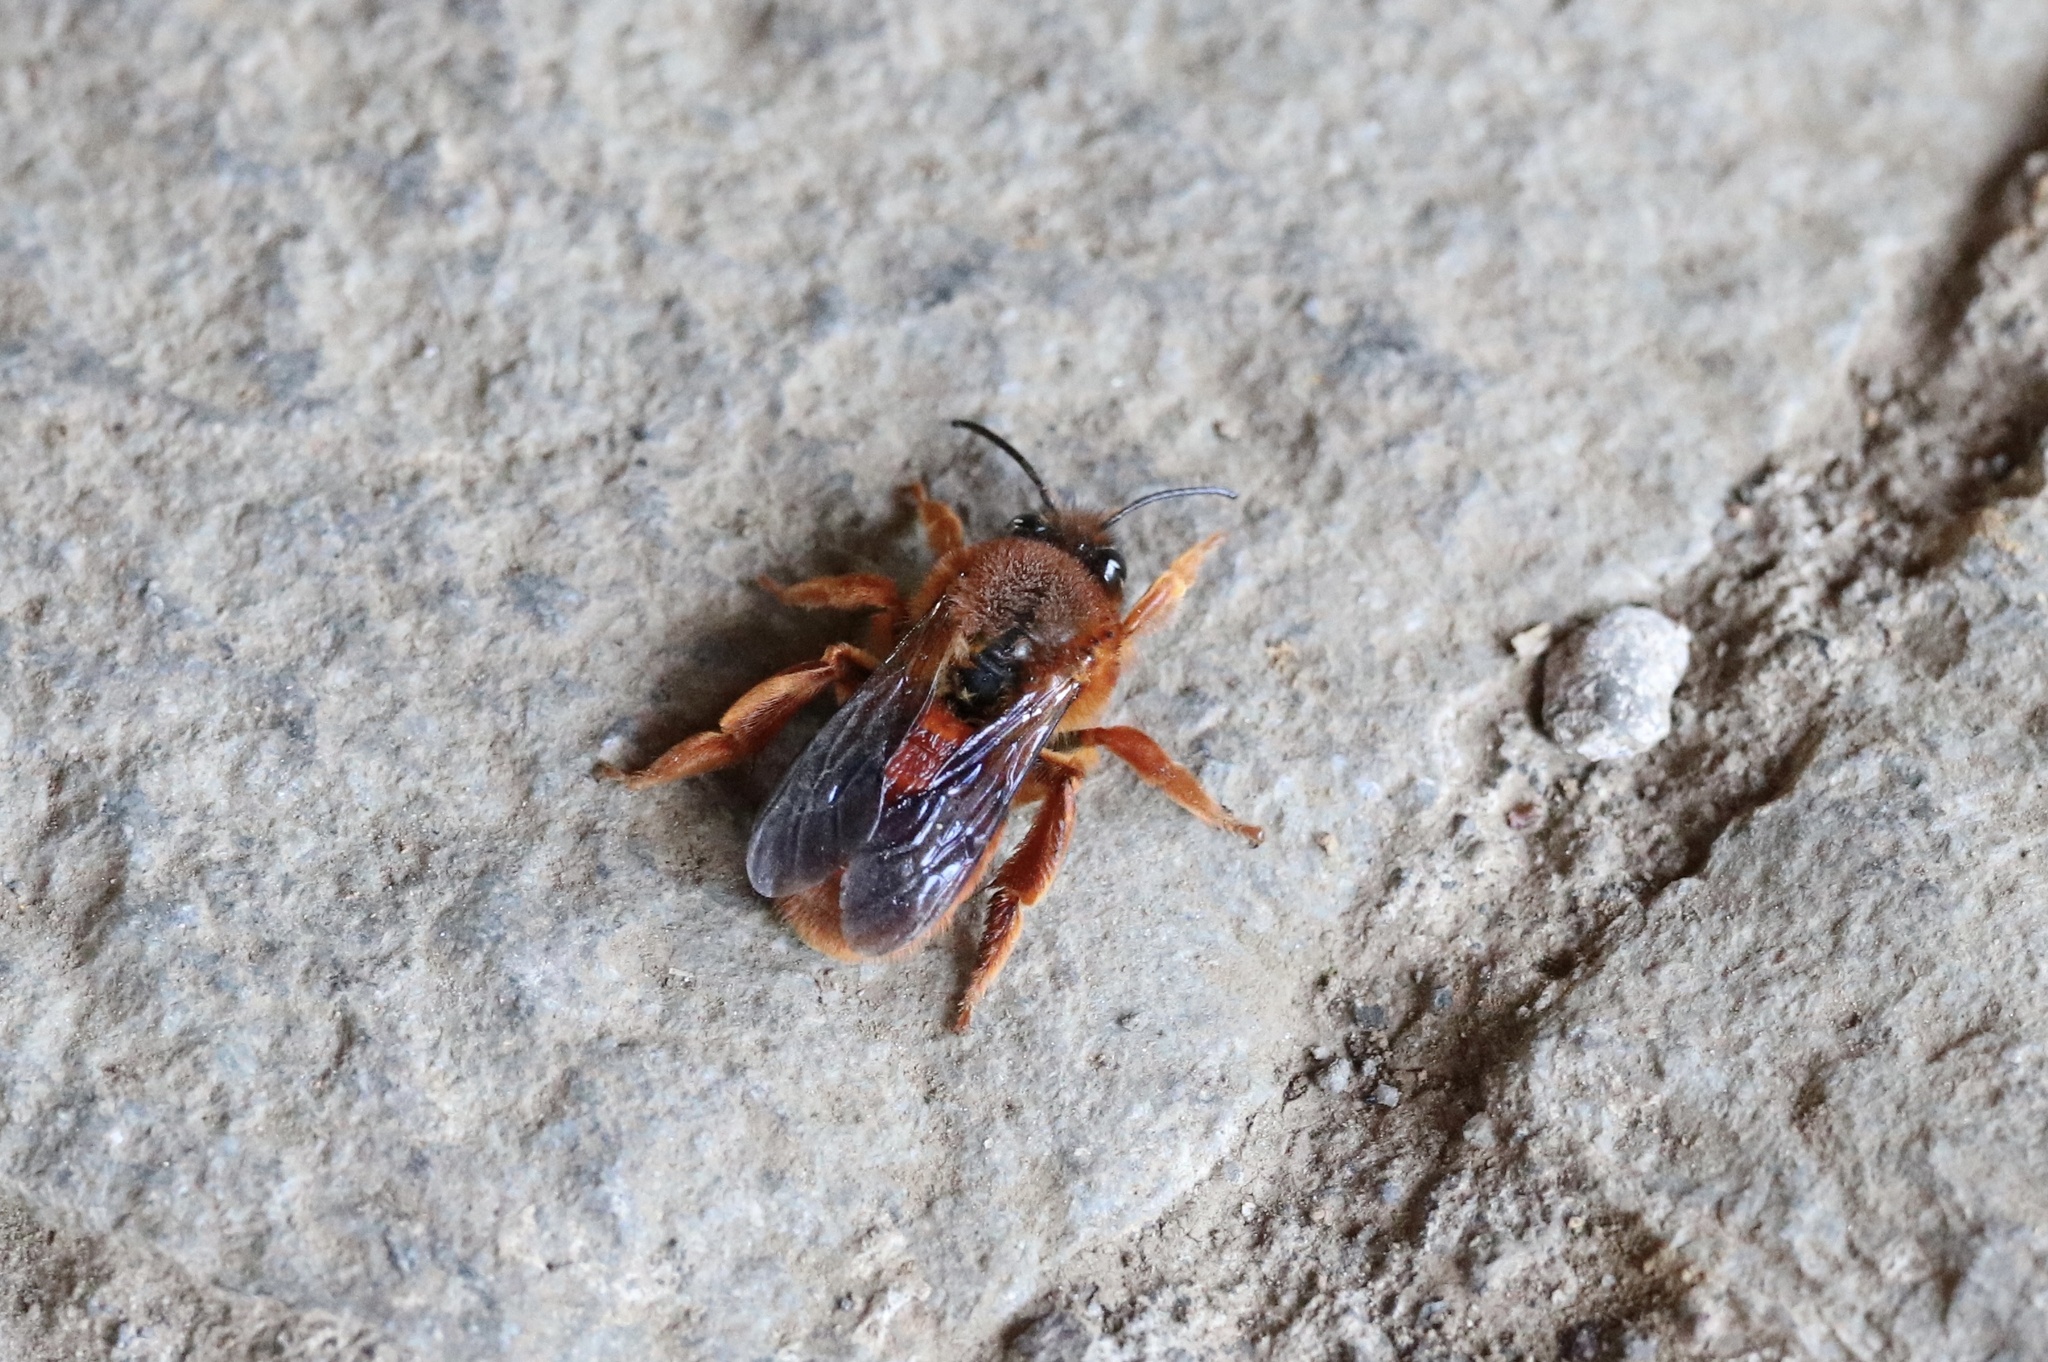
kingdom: Animalia
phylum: Arthropoda
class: Insecta
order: Hymenoptera
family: Colletidae
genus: Diphaglossa
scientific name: Diphaglossa gayi
